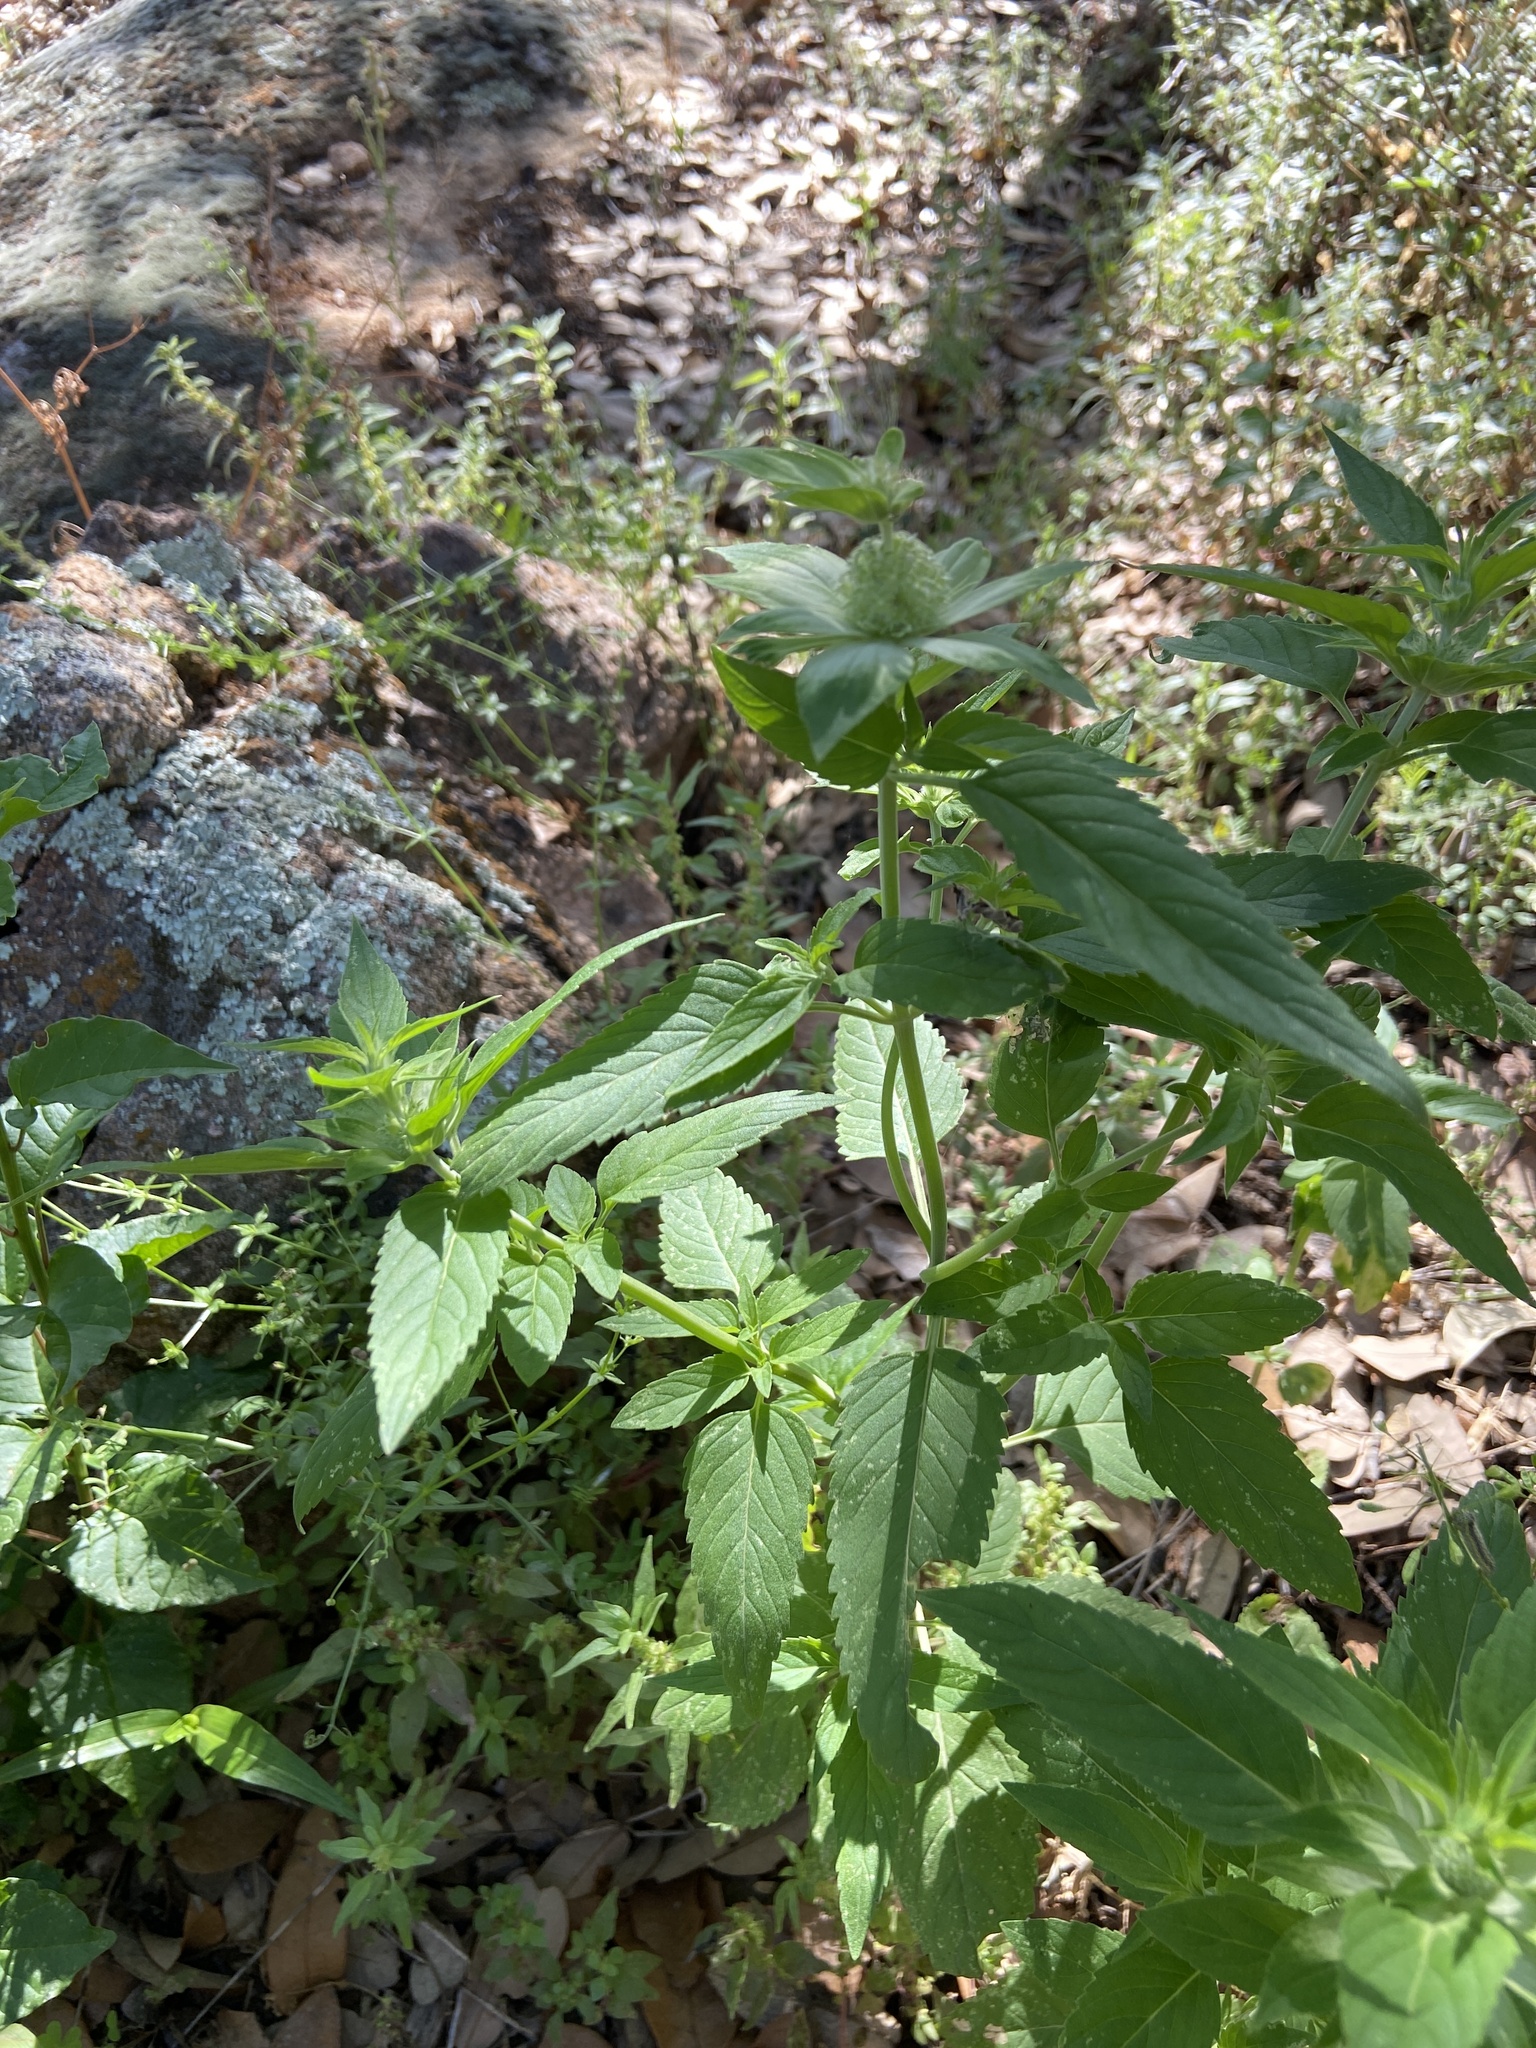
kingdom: Plantae
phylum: Tracheophyta
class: Magnoliopsida
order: Lamiales
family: Lamiaceae
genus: Monarda
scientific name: Monarda stanfieldii
